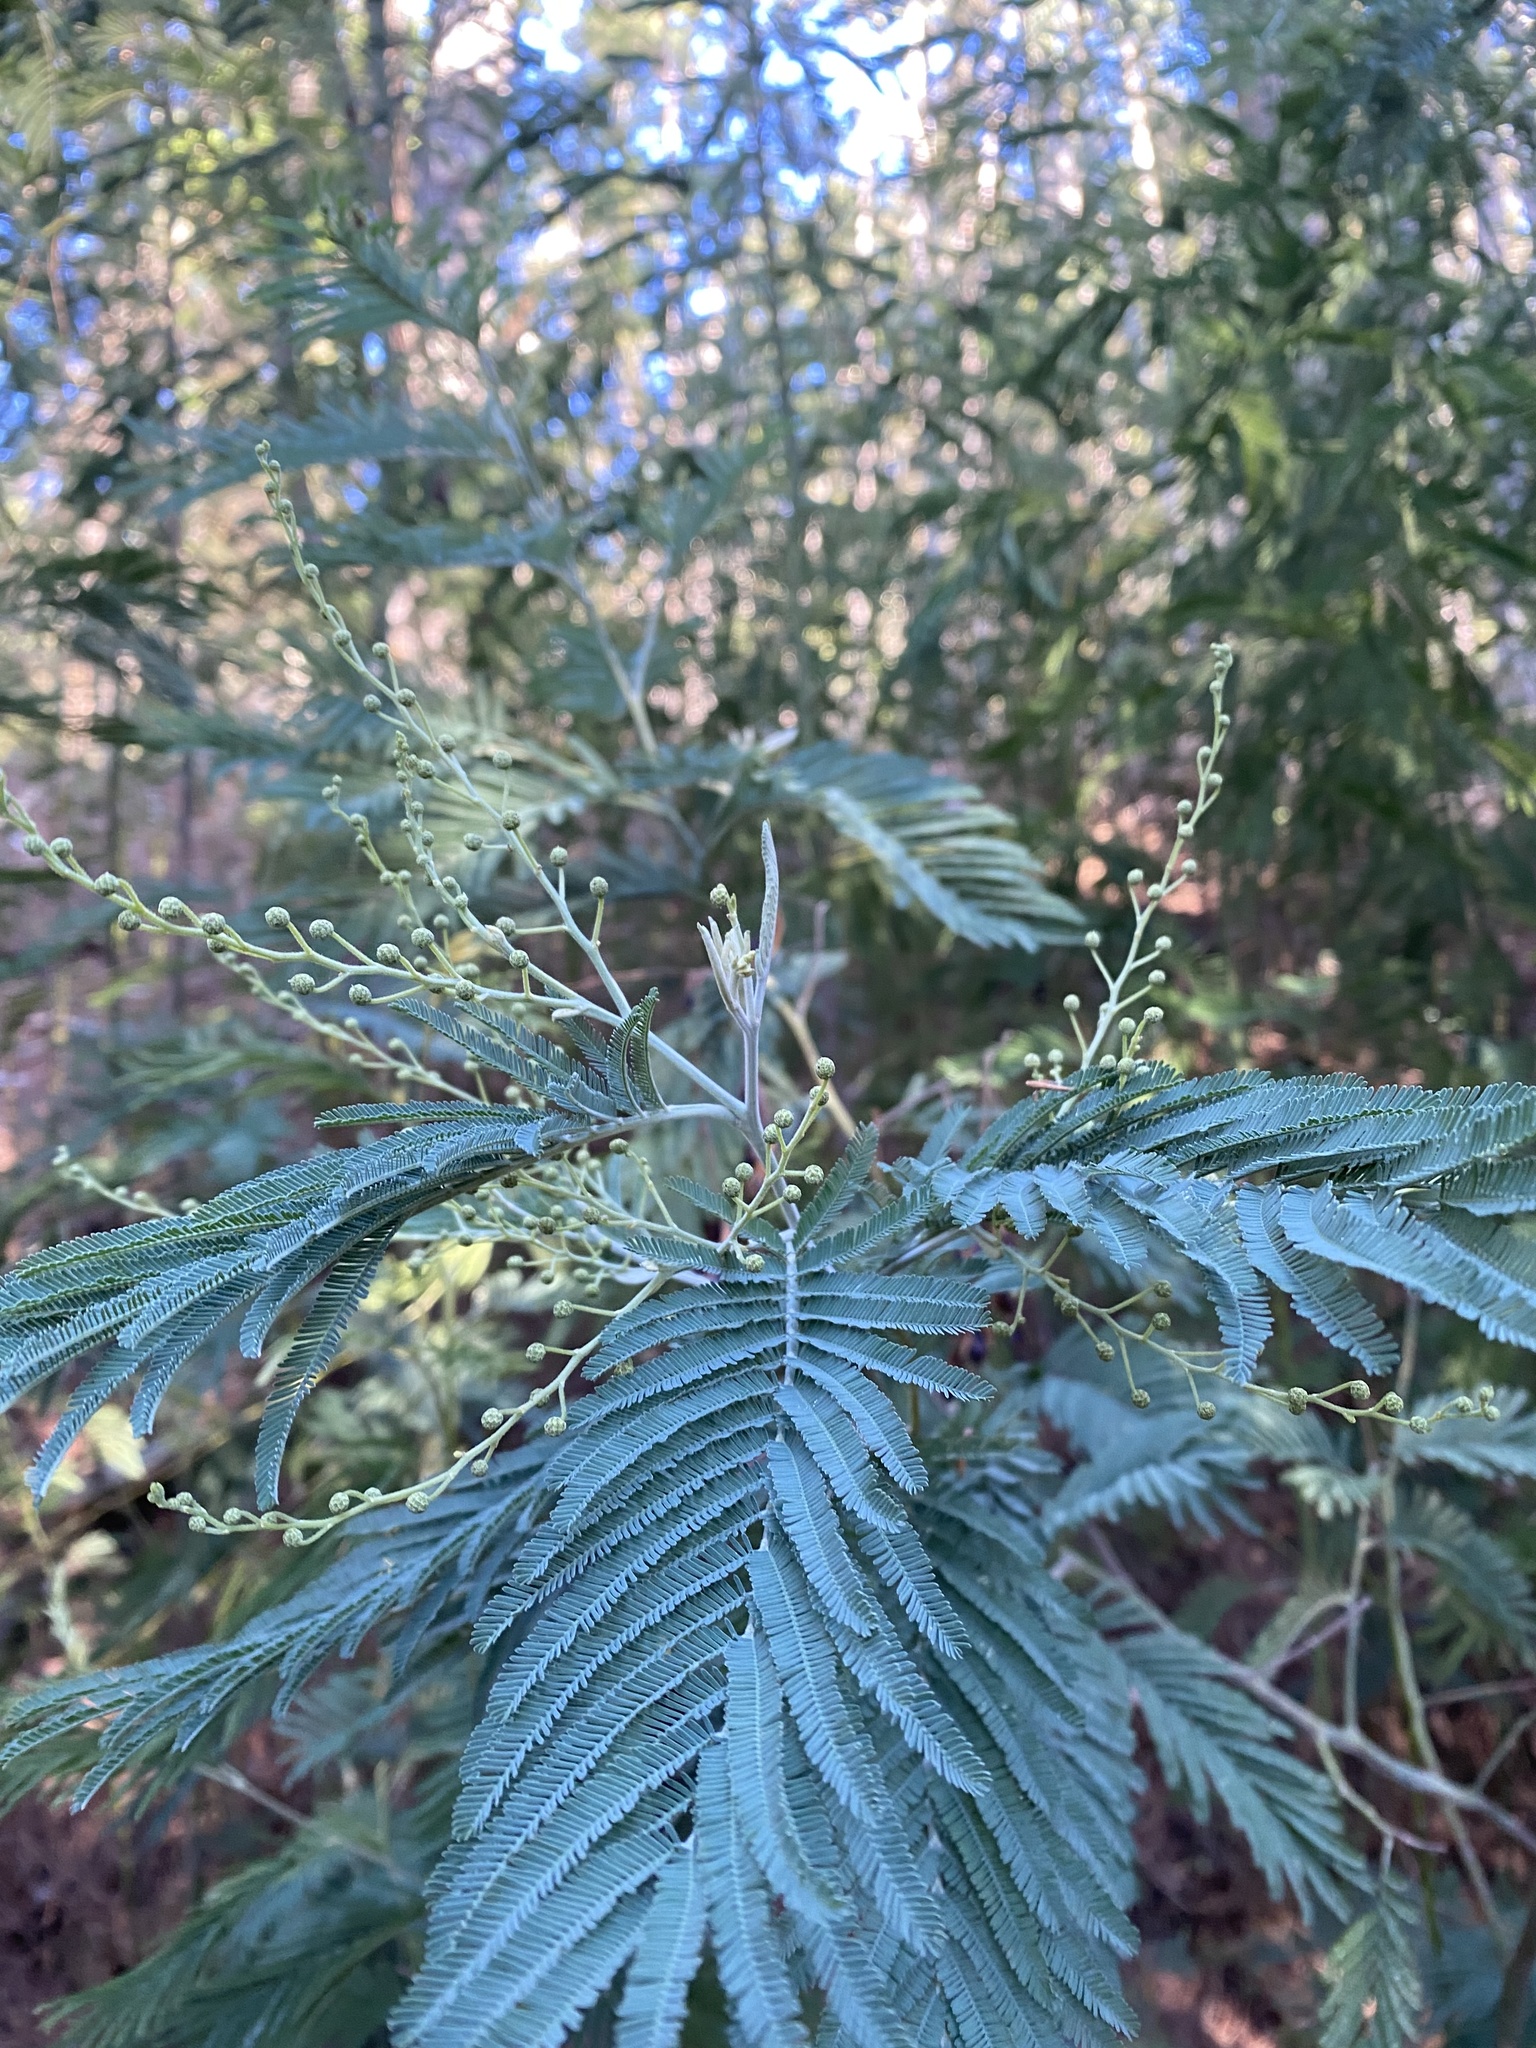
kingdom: Plantae
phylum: Tracheophyta
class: Magnoliopsida
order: Fabales
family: Fabaceae
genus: Acacia
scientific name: Acacia dealbata
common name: Silver wattle
